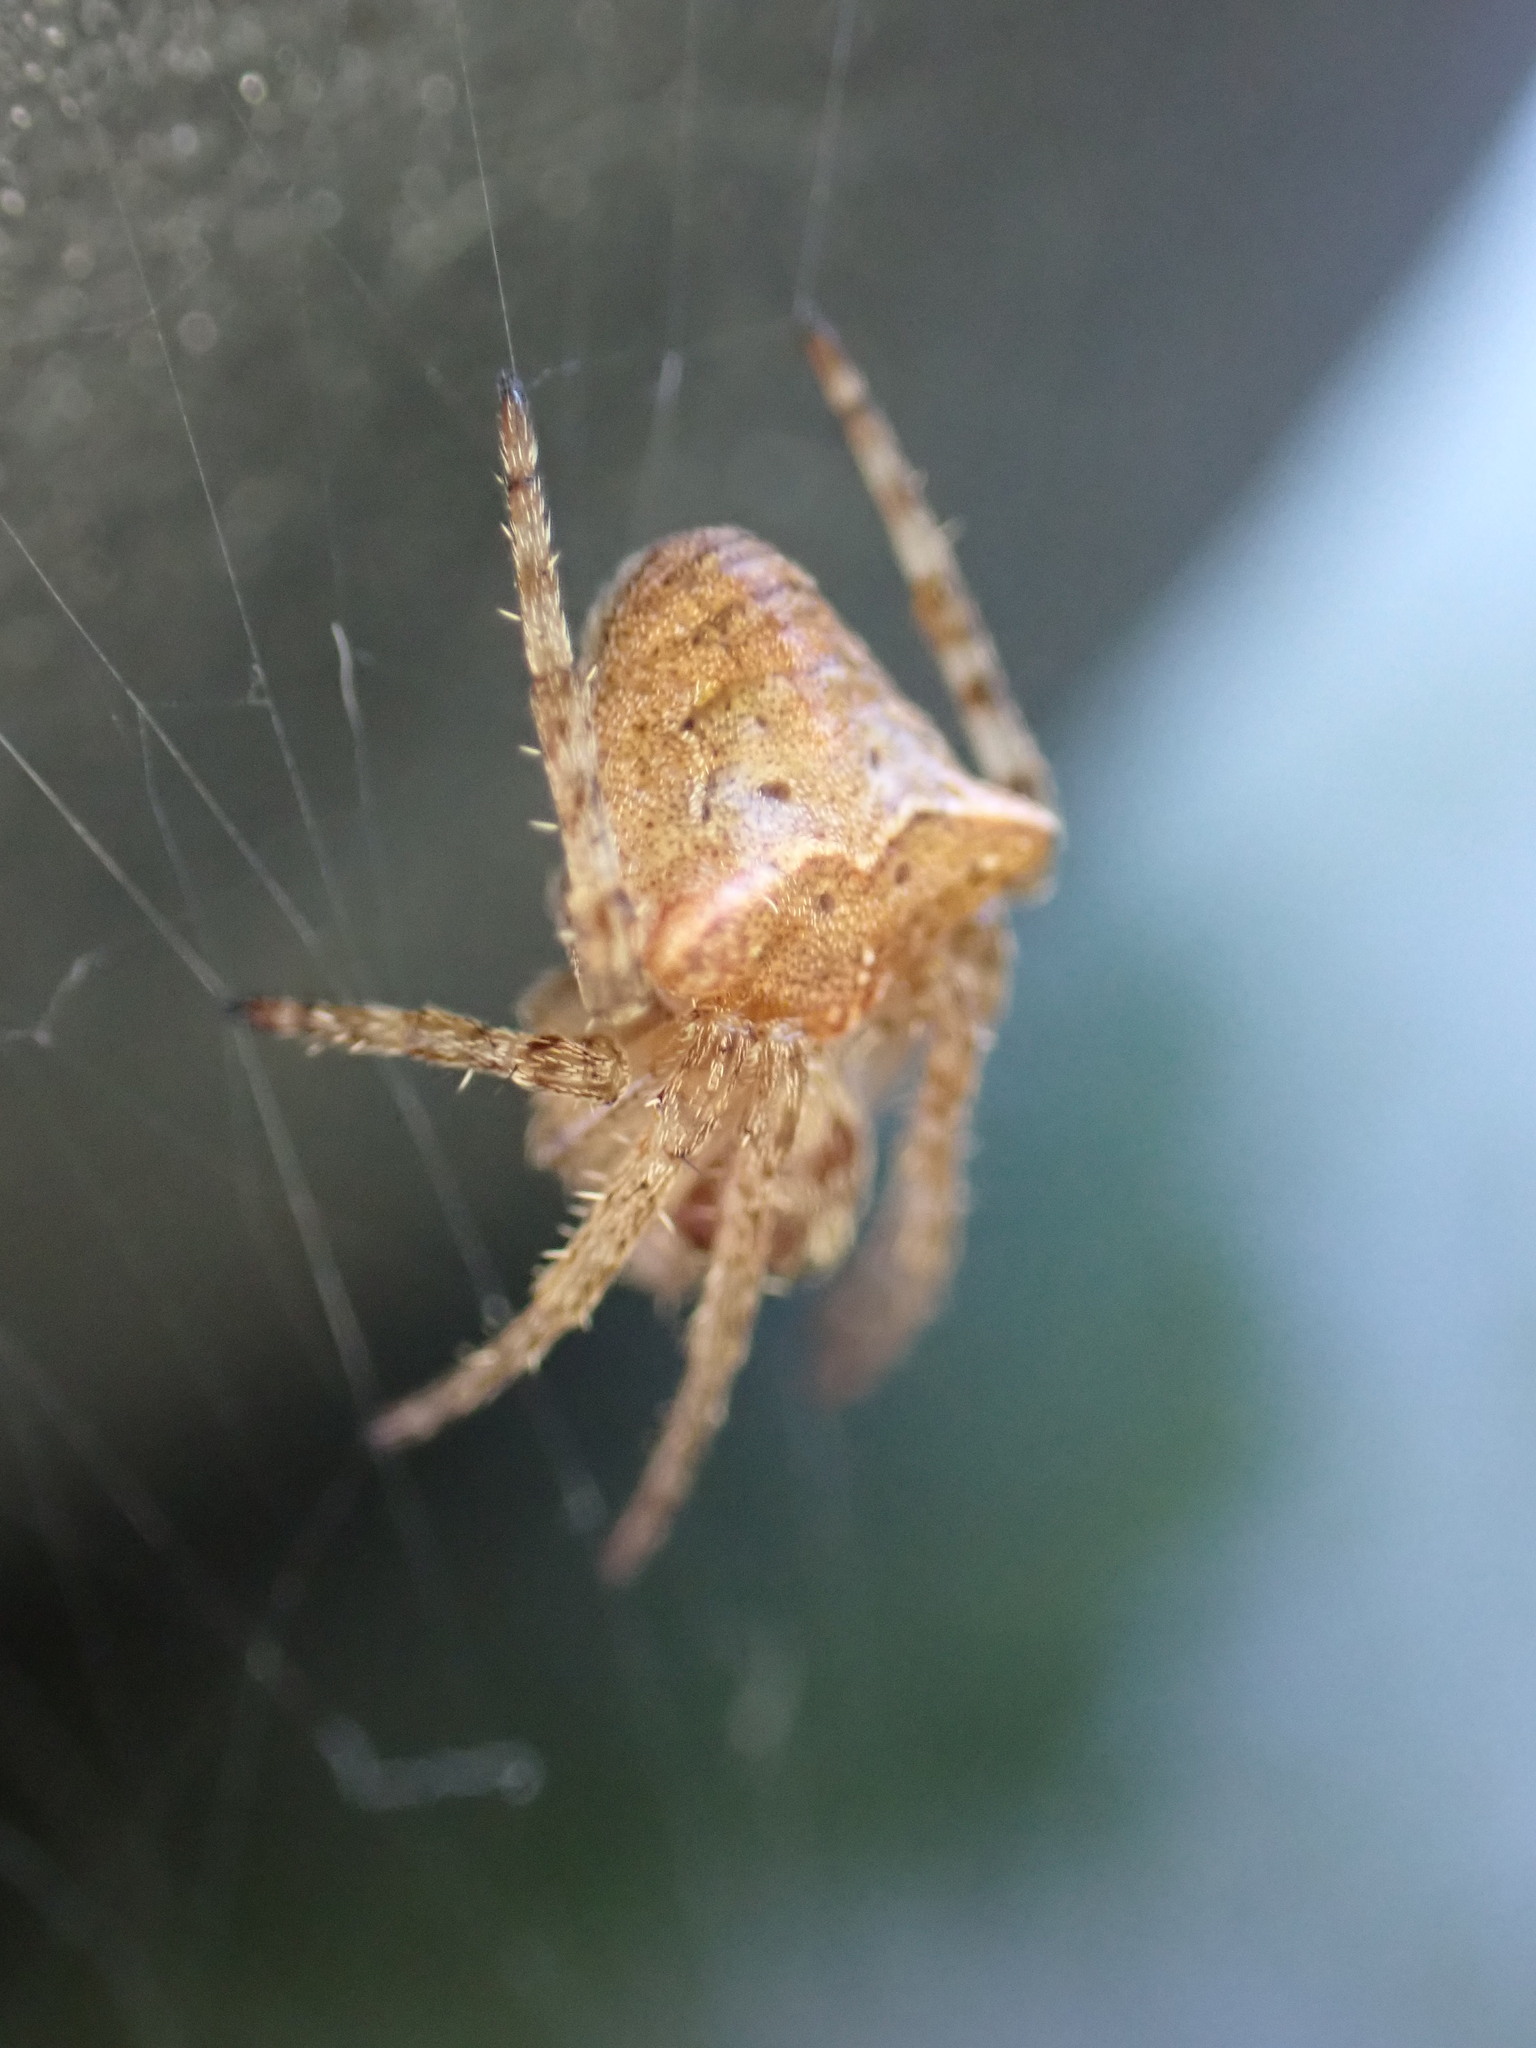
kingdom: Animalia
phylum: Arthropoda
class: Arachnida
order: Araneae
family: Araneidae
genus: Gibbaranea
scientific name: Gibbaranea bituberculata
